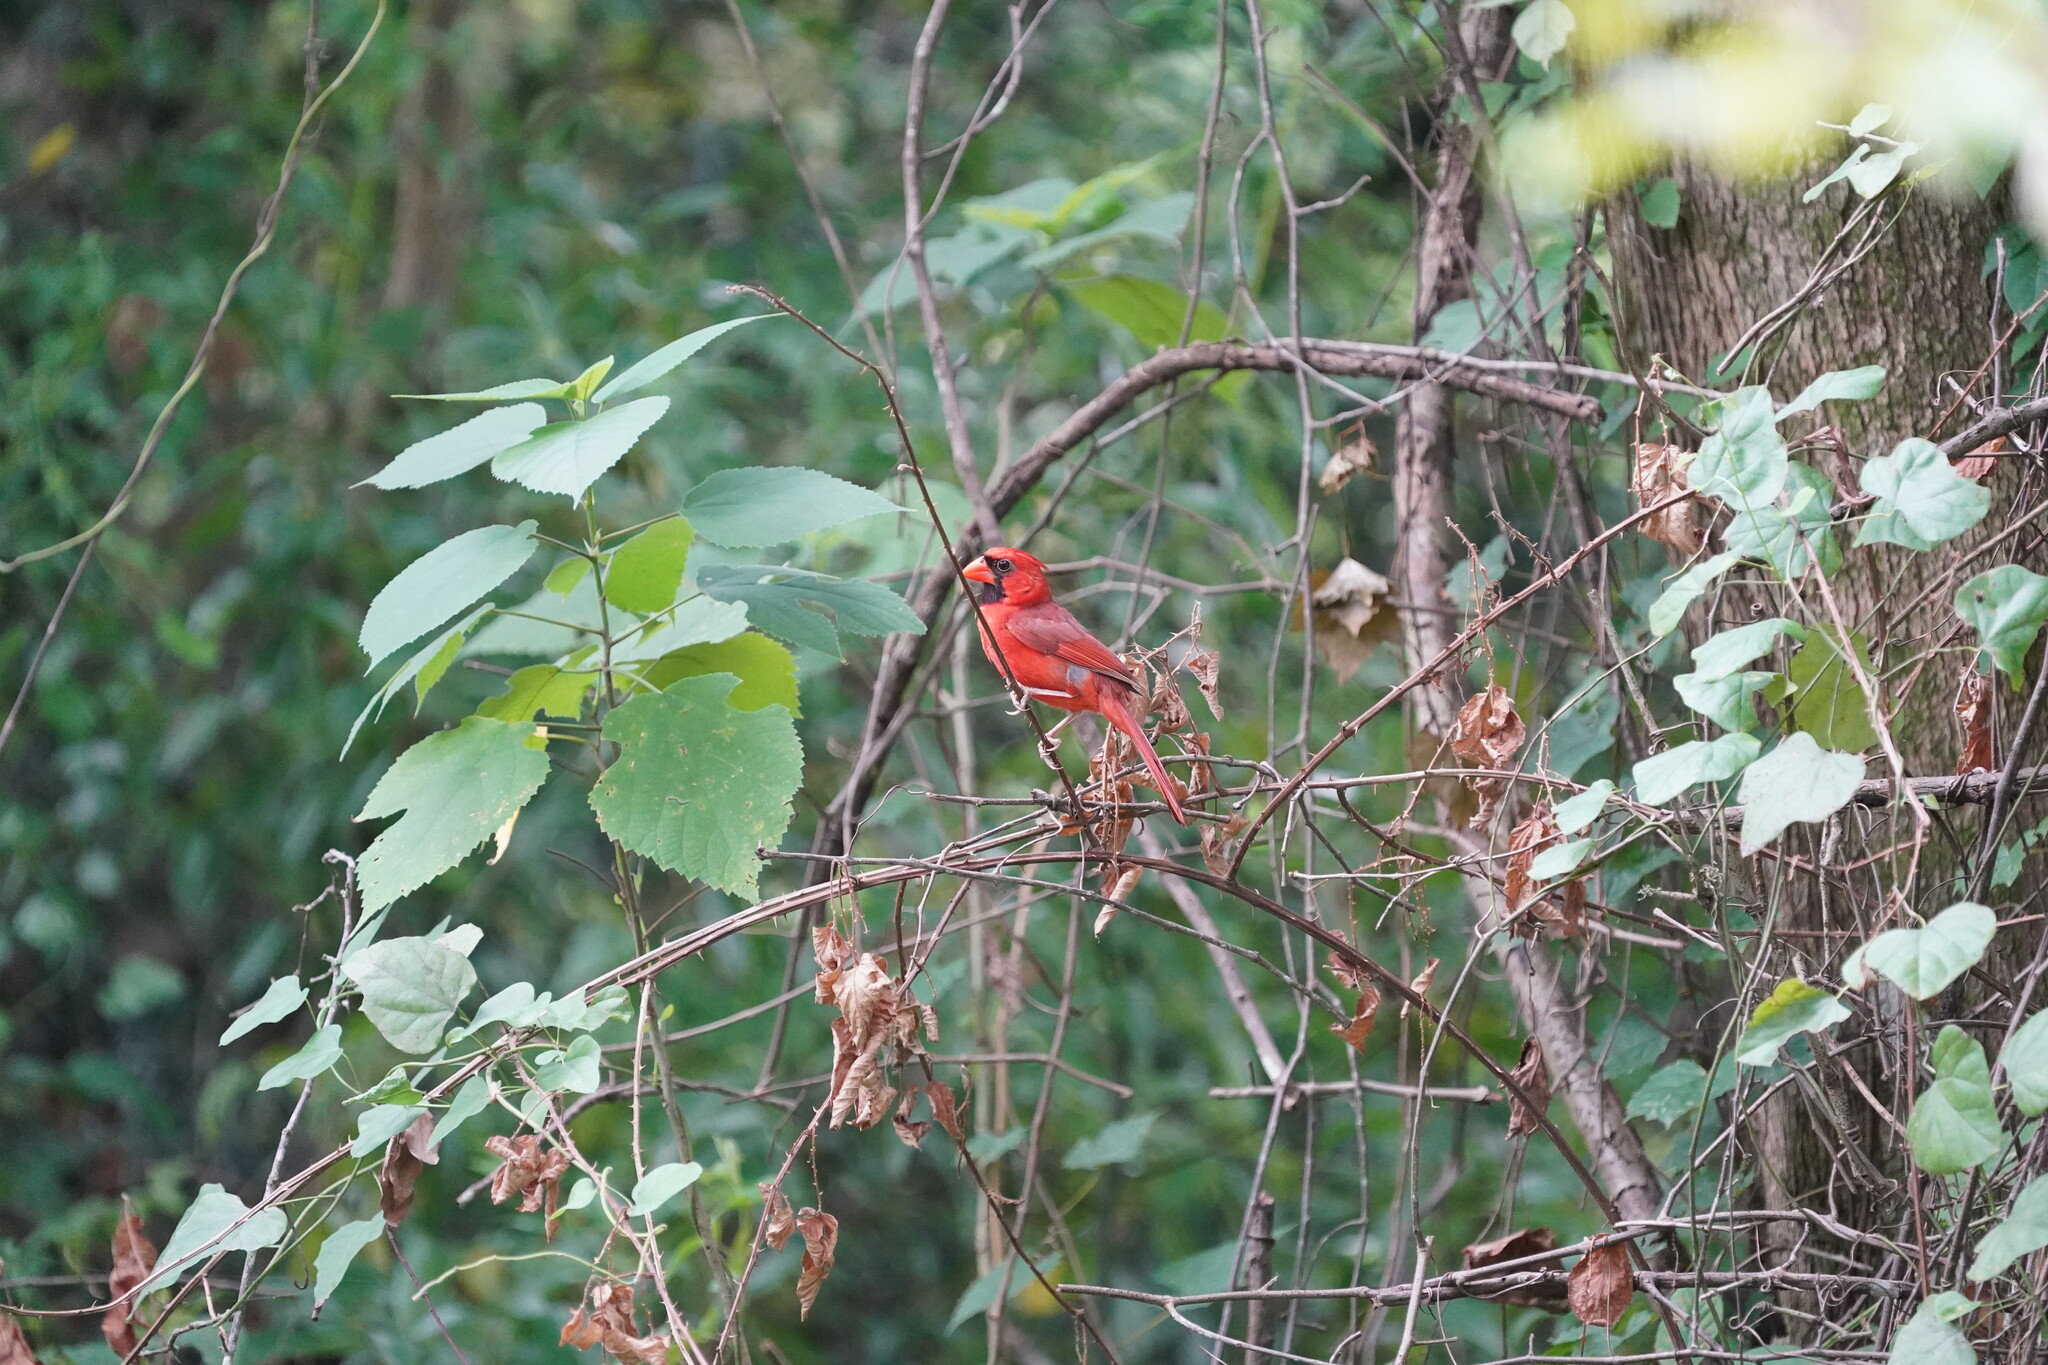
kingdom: Animalia
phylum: Chordata
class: Aves
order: Passeriformes
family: Cardinalidae
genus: Cardinalis
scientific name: Cardinalis cardinalis
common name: Northern cardinal
